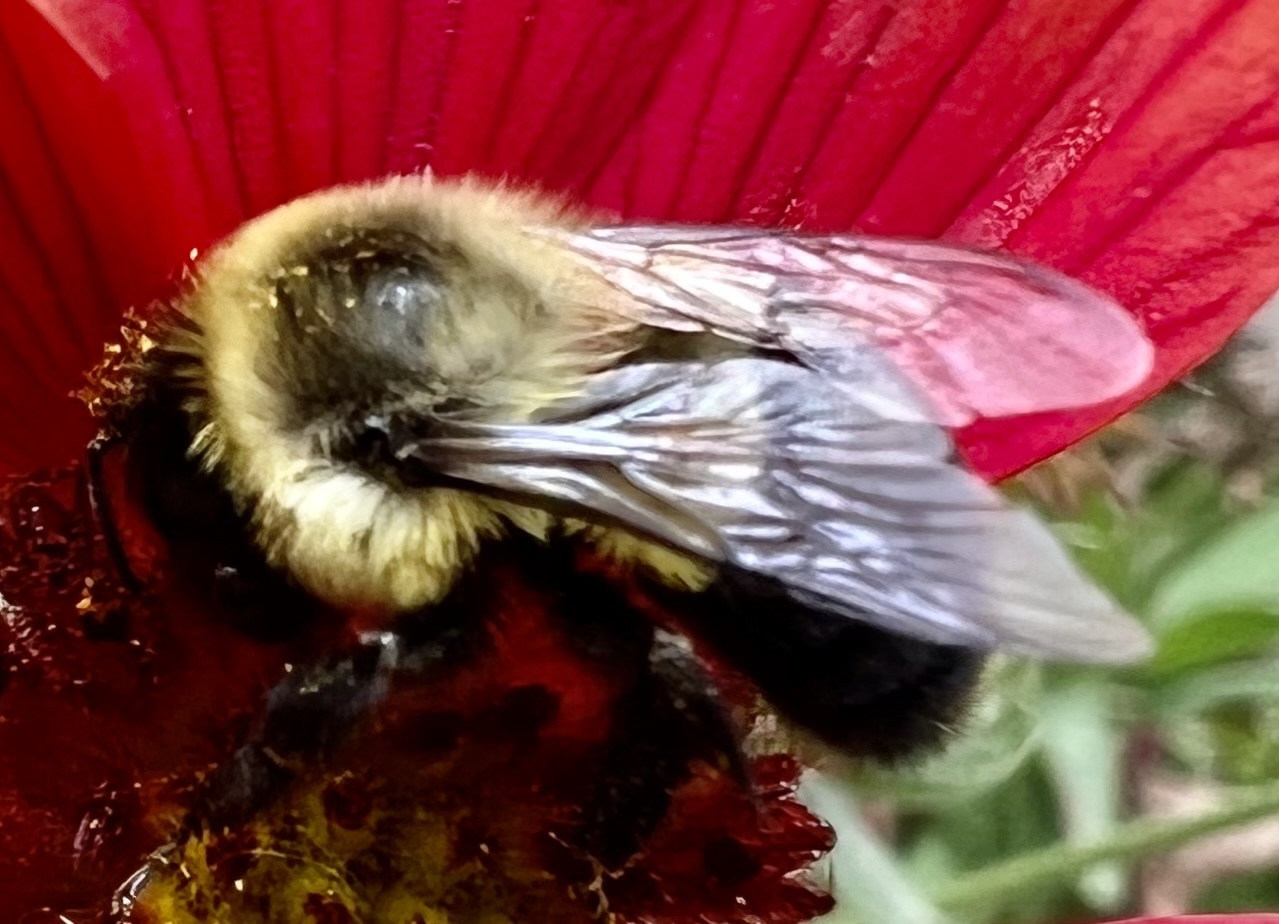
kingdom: Animalia
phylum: Arthropoda
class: Insecta
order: Hymenoptera
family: Apidae
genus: Bombus
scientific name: Bombus impatiens
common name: Common eastern bumble bee
